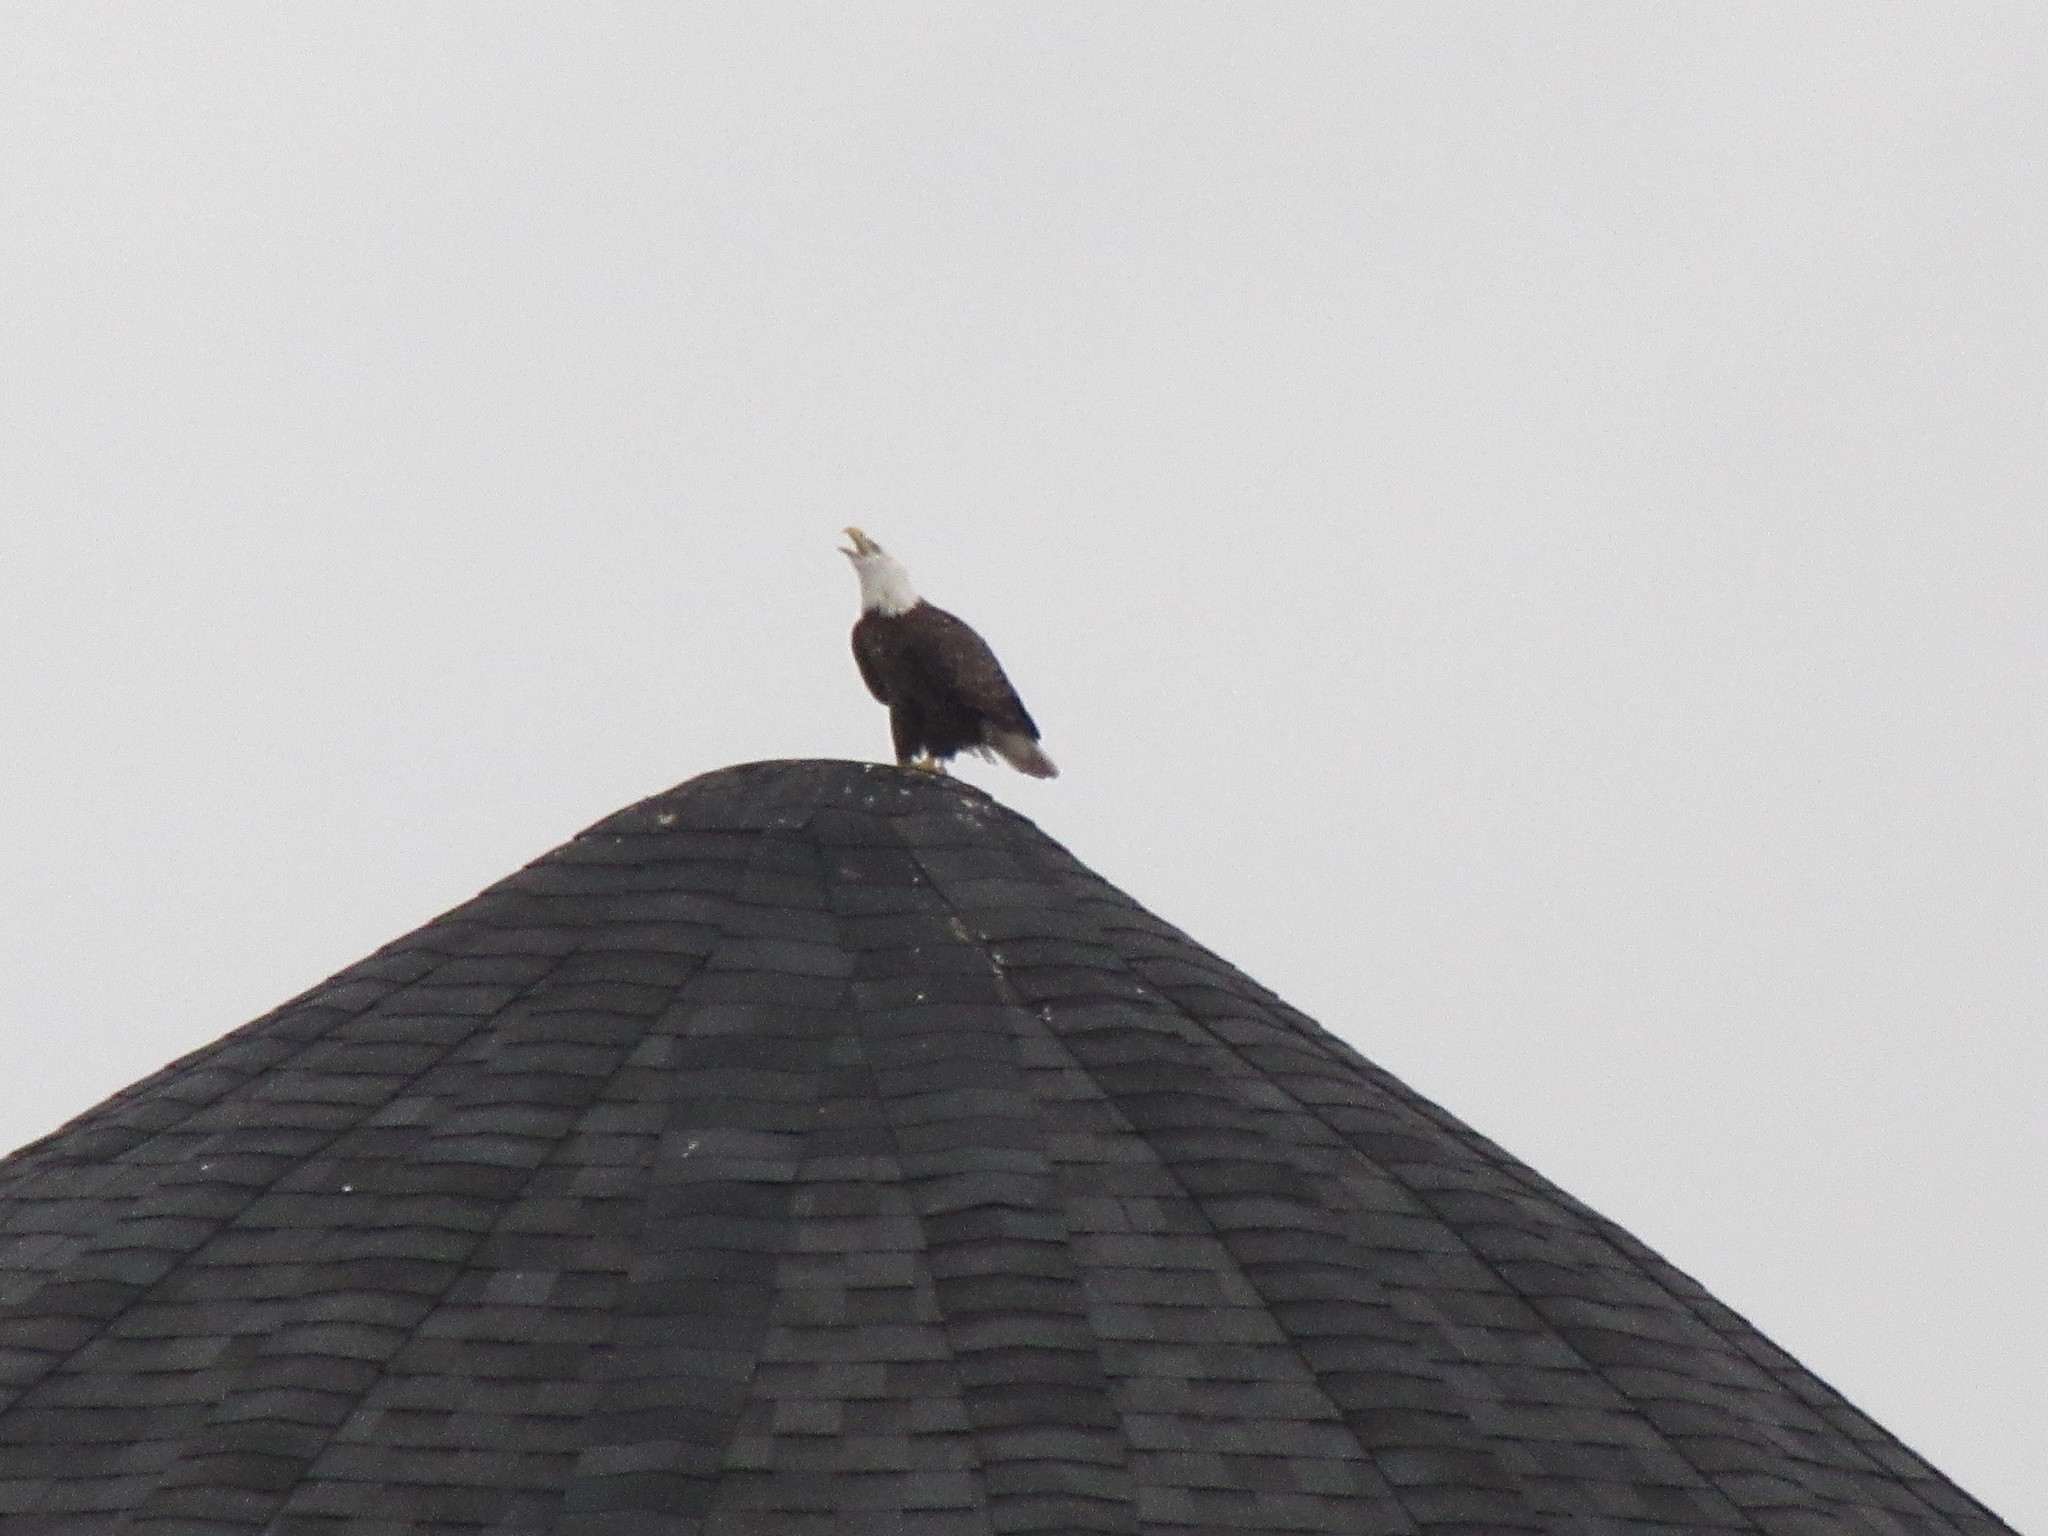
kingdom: Animalia
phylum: Chordata
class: Aves
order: Accipitriformes
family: Accipitridae
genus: Haliaeetus
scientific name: Haliaeetus leucocephalus
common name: Bald eagle
